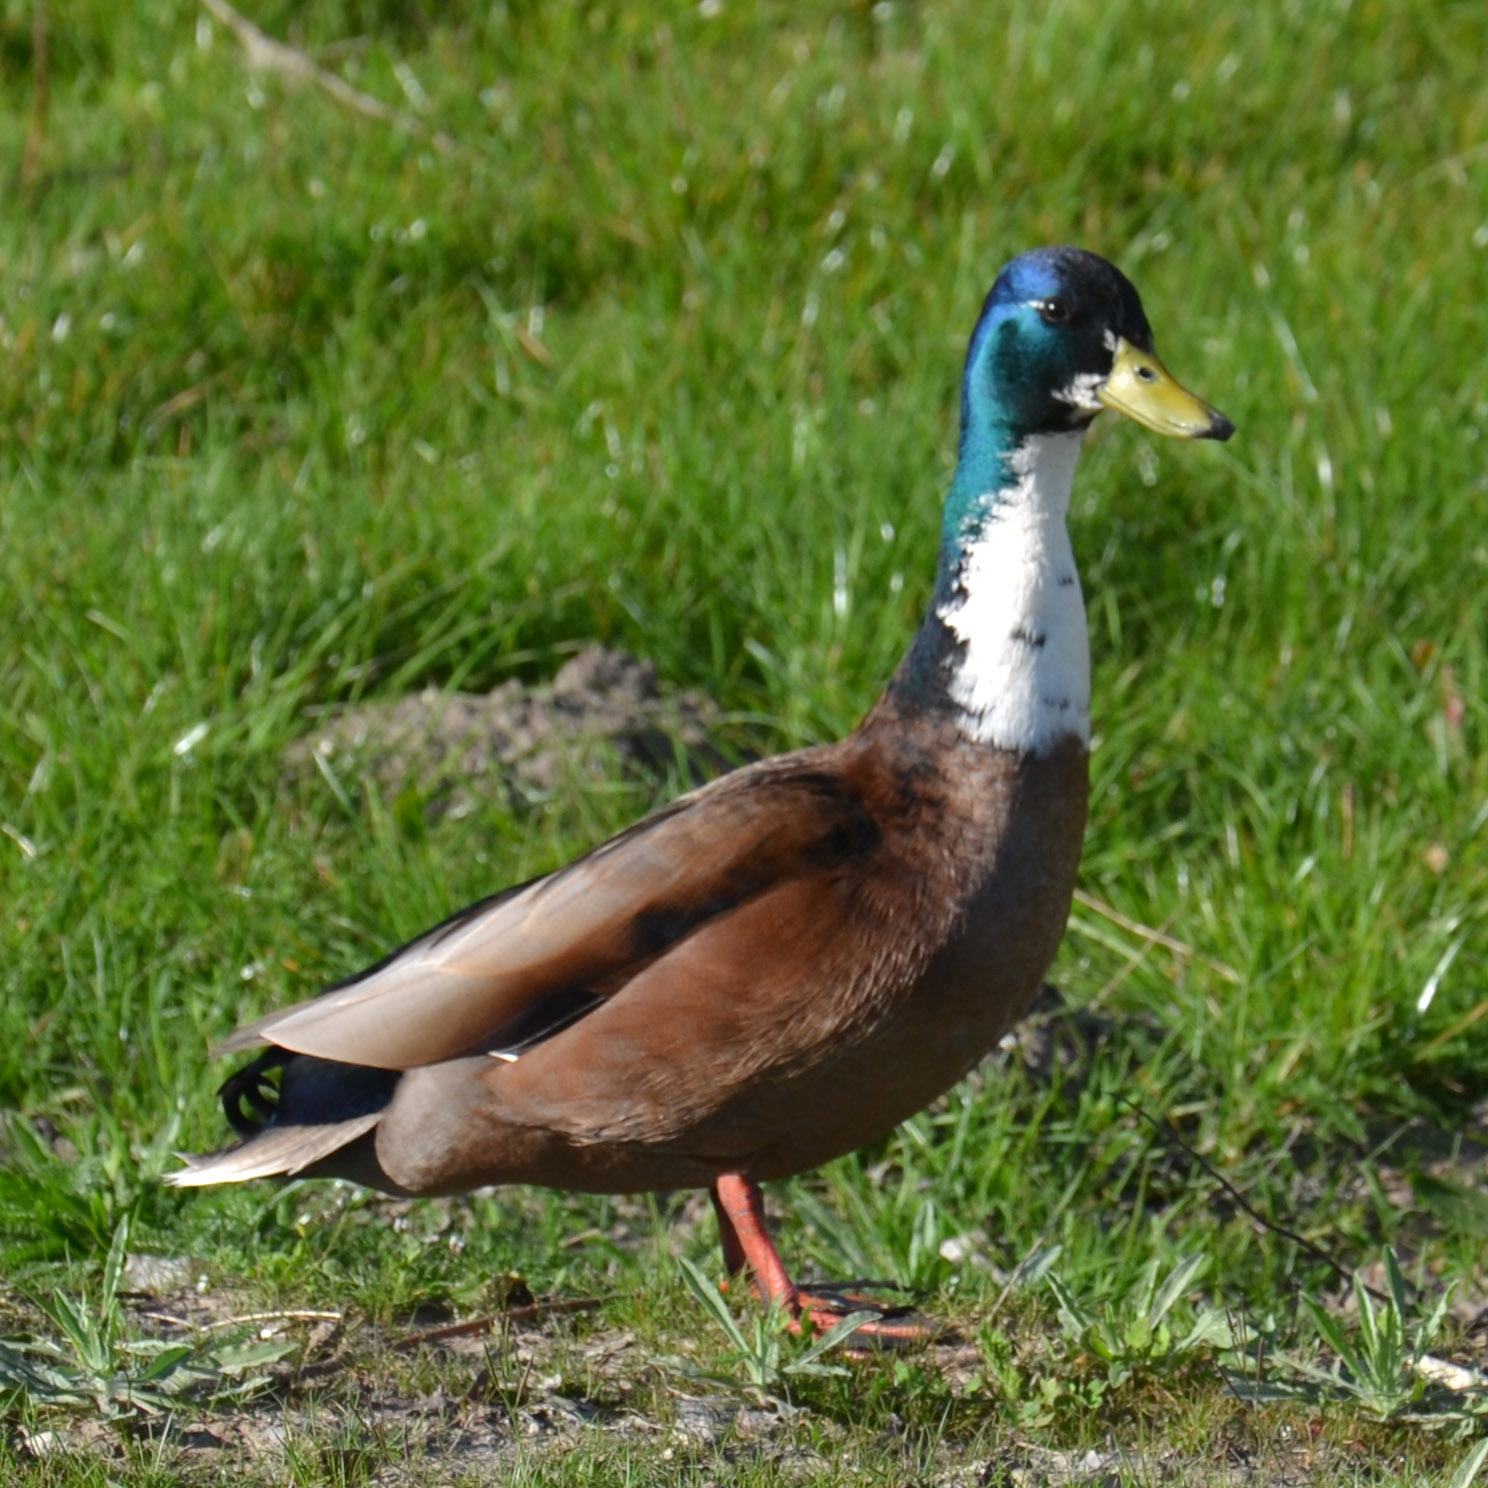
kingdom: Animalia
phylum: Chordata
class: Aves
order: Anseriformes
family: Anatidae
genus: Anas
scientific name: Anas platyrhynchos
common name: Mallard
